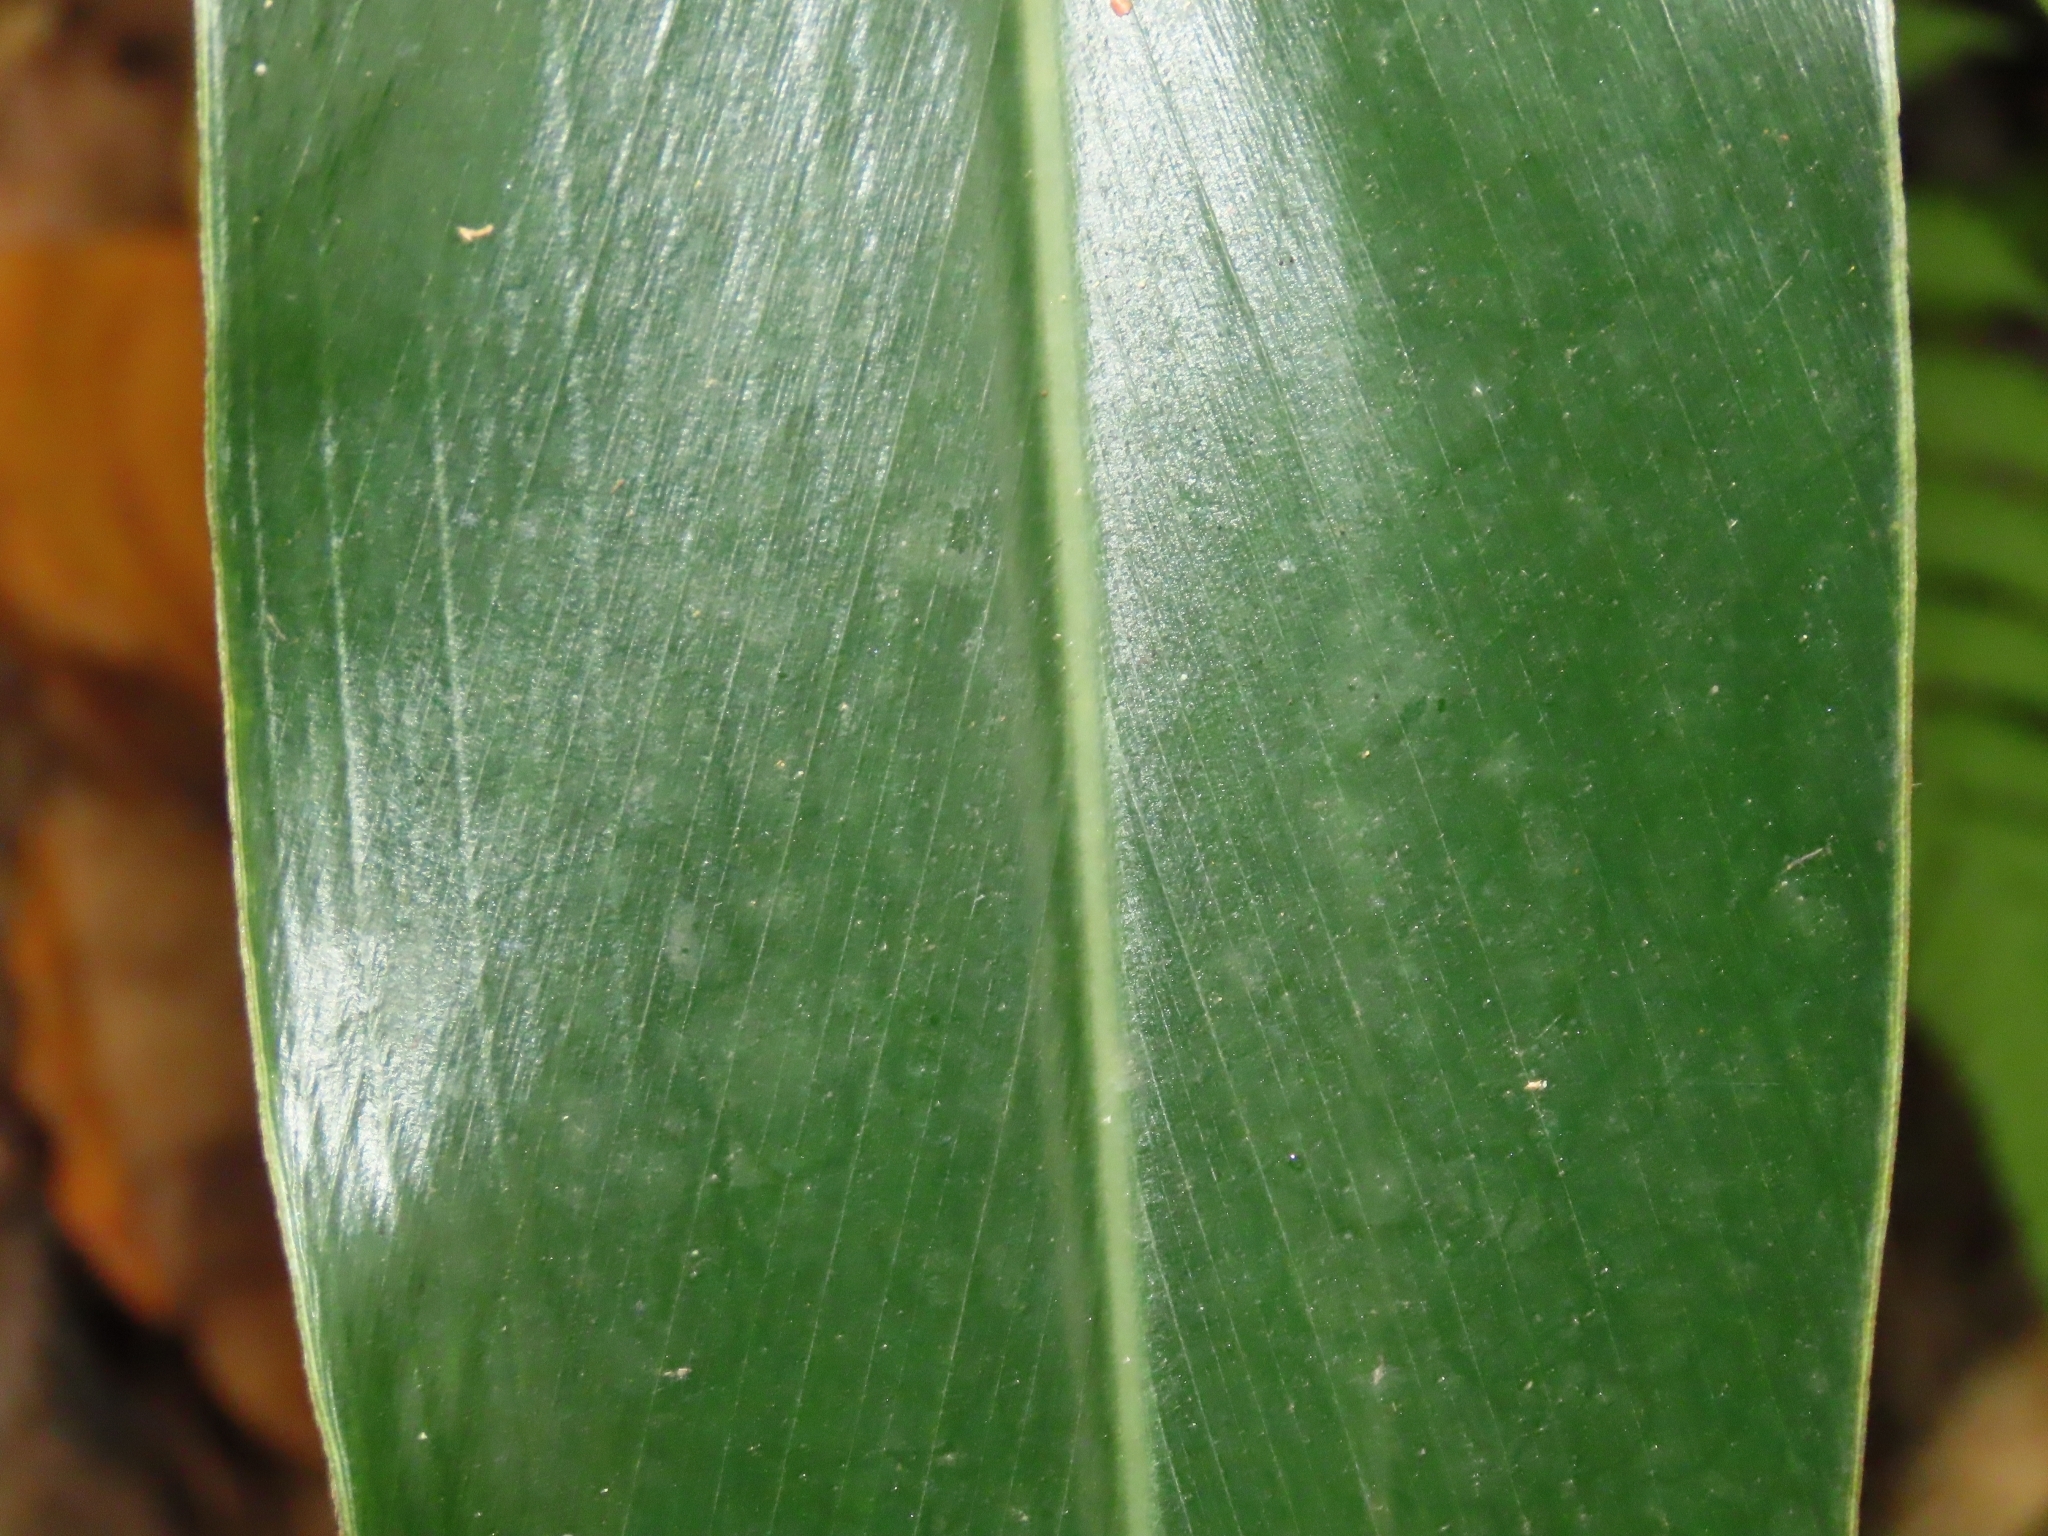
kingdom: Plantae
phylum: Tracheophyta
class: Liliopsida
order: Zingiberales
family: Zingiberaceae
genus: Alpinia
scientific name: Alpinia zerumbet
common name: Shellplant
